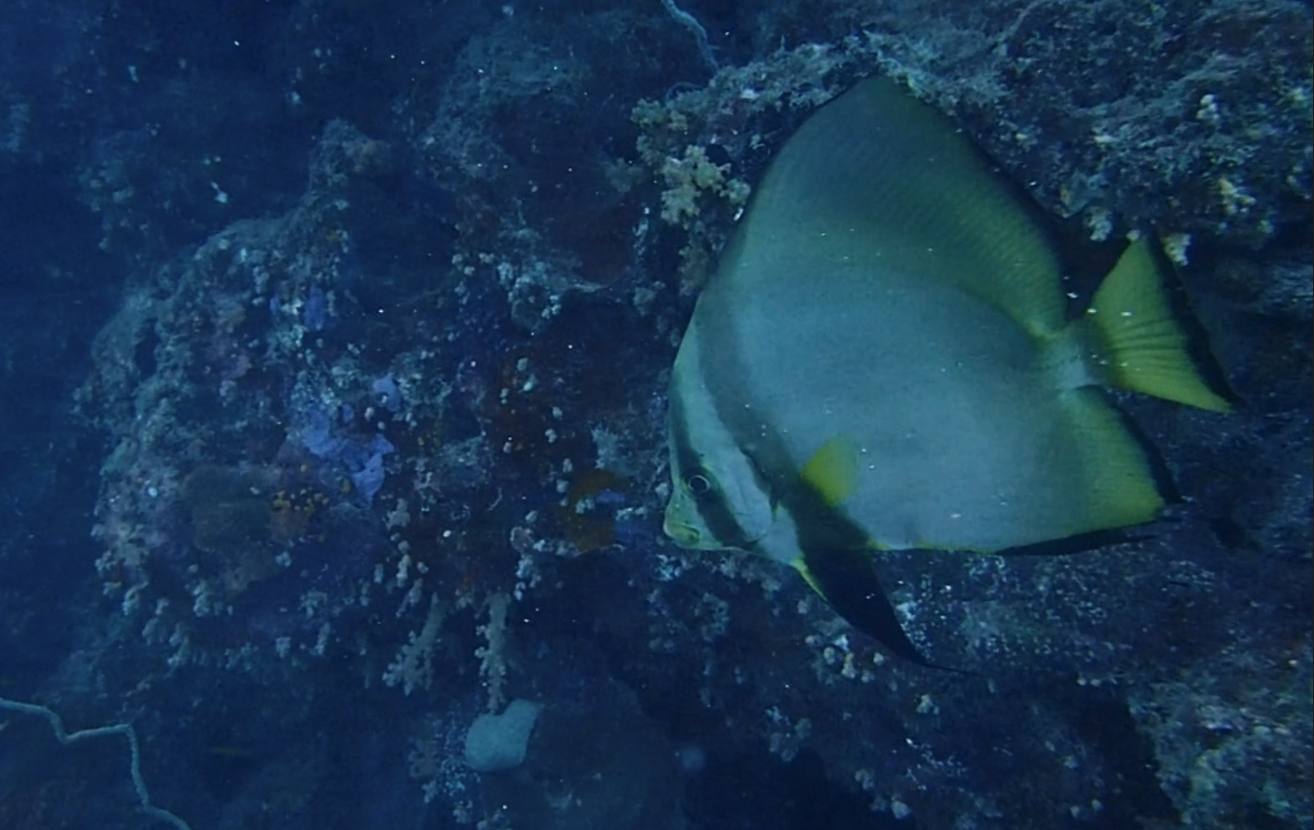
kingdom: Animalia
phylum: Chordata
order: Perciformes
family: Ephippidae
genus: Platax
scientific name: Platax pinnatus
